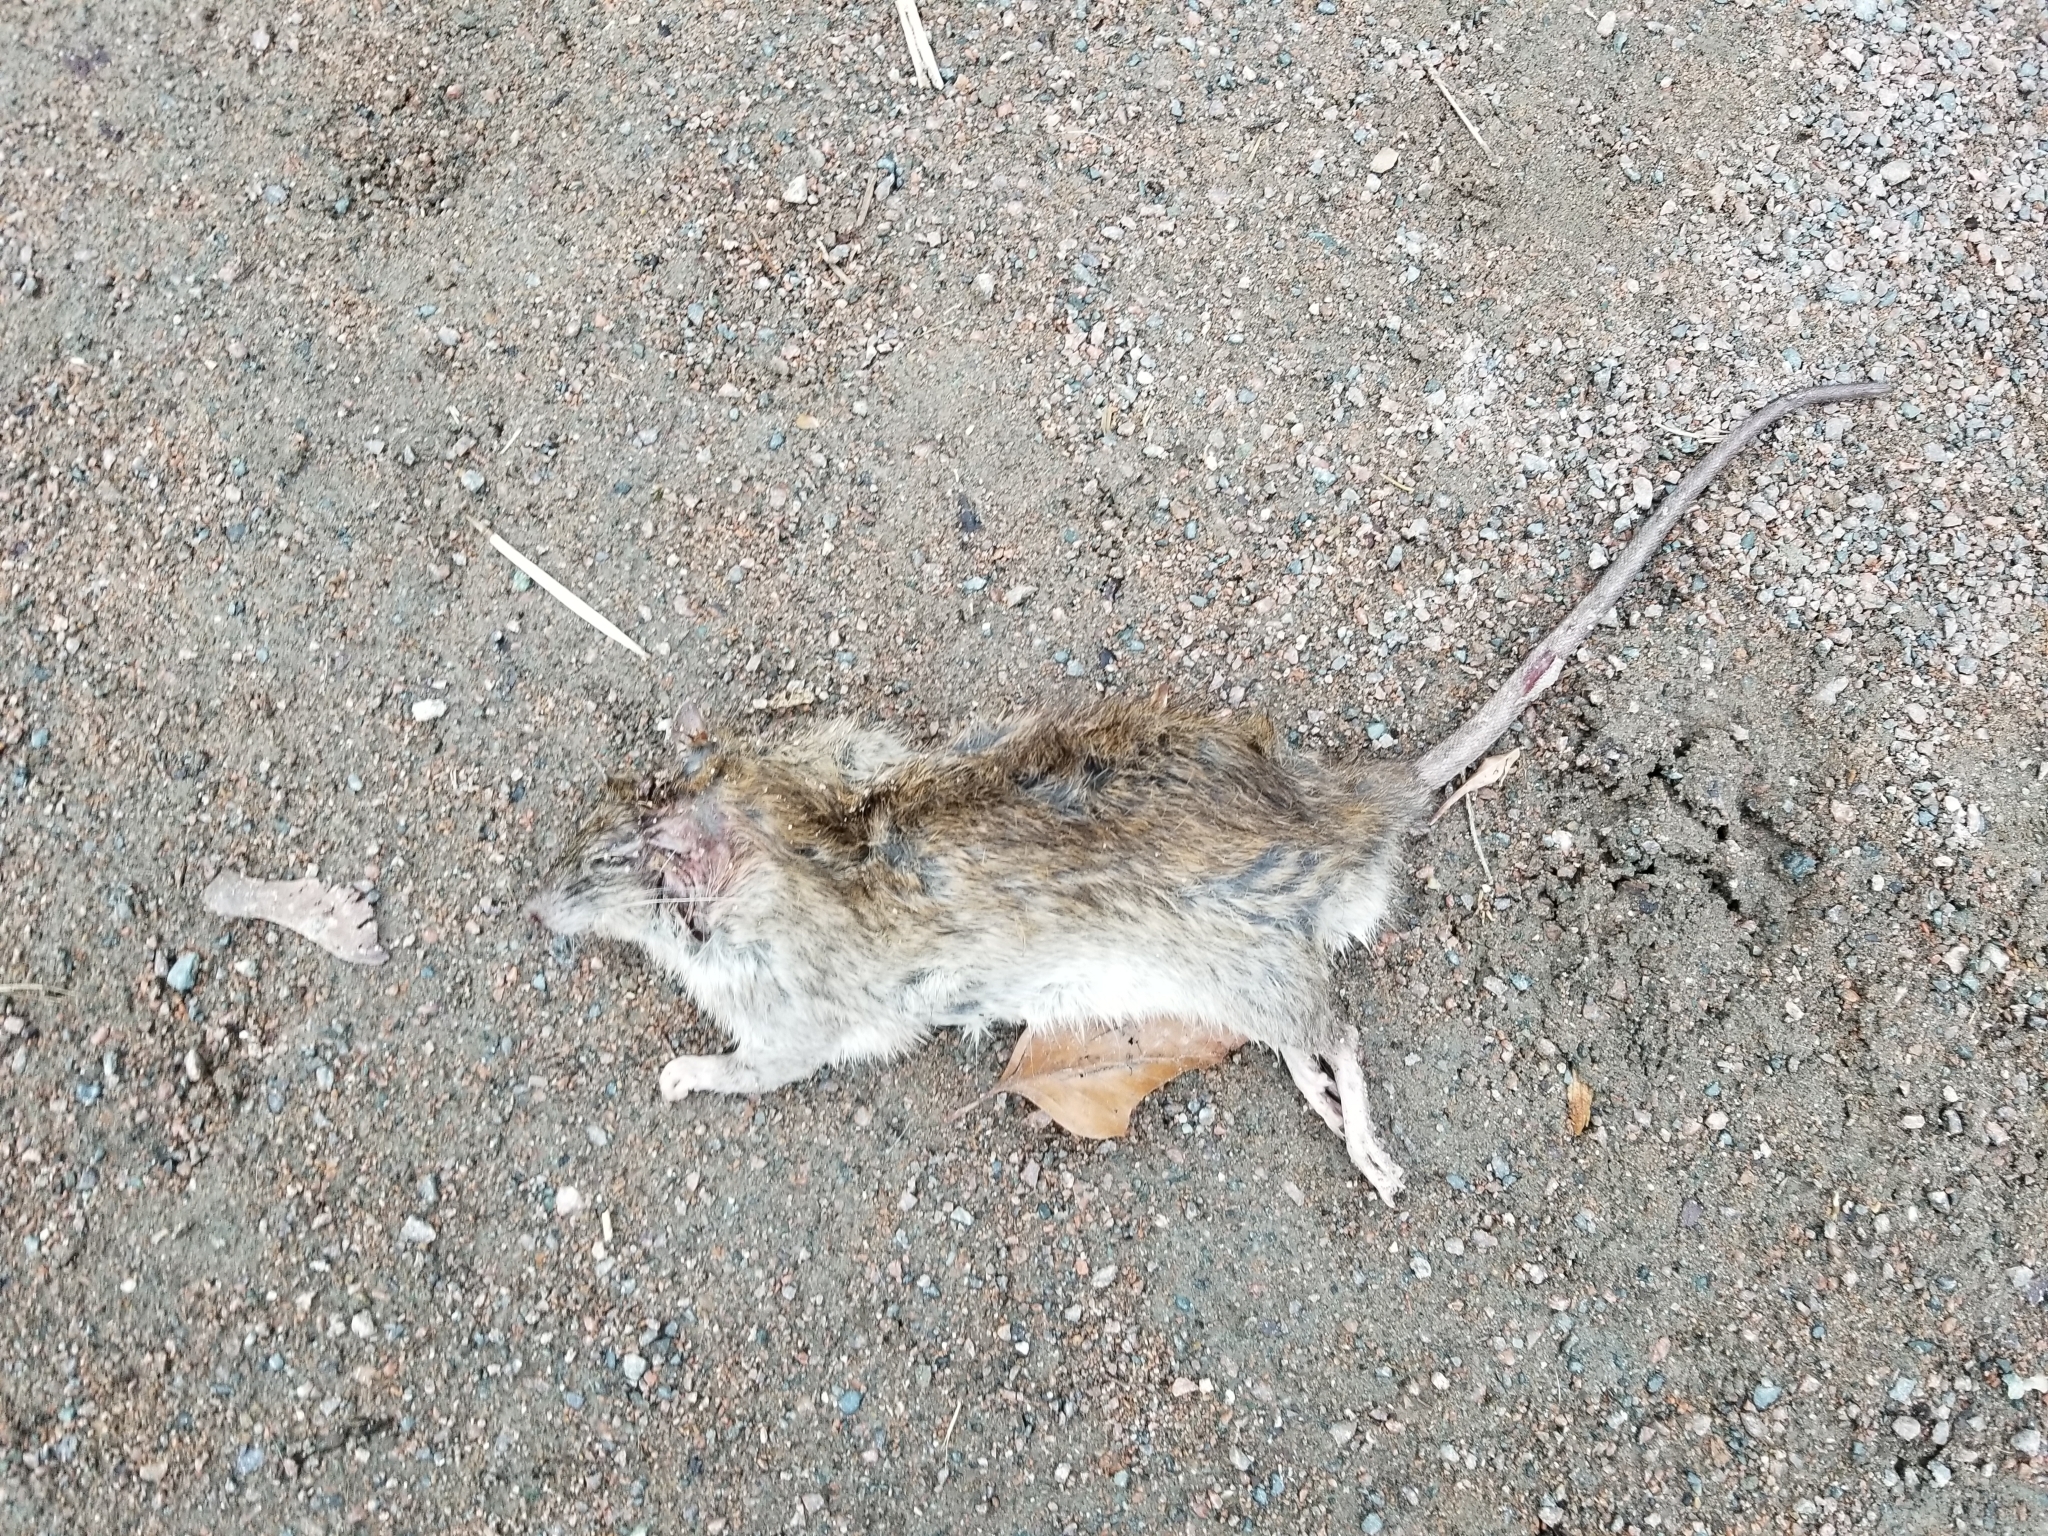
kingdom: Animalia
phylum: Chordata
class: Mammalia
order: Rodentia
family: Muridae
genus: Rattus
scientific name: Rattus norvegicus
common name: Brown rat
